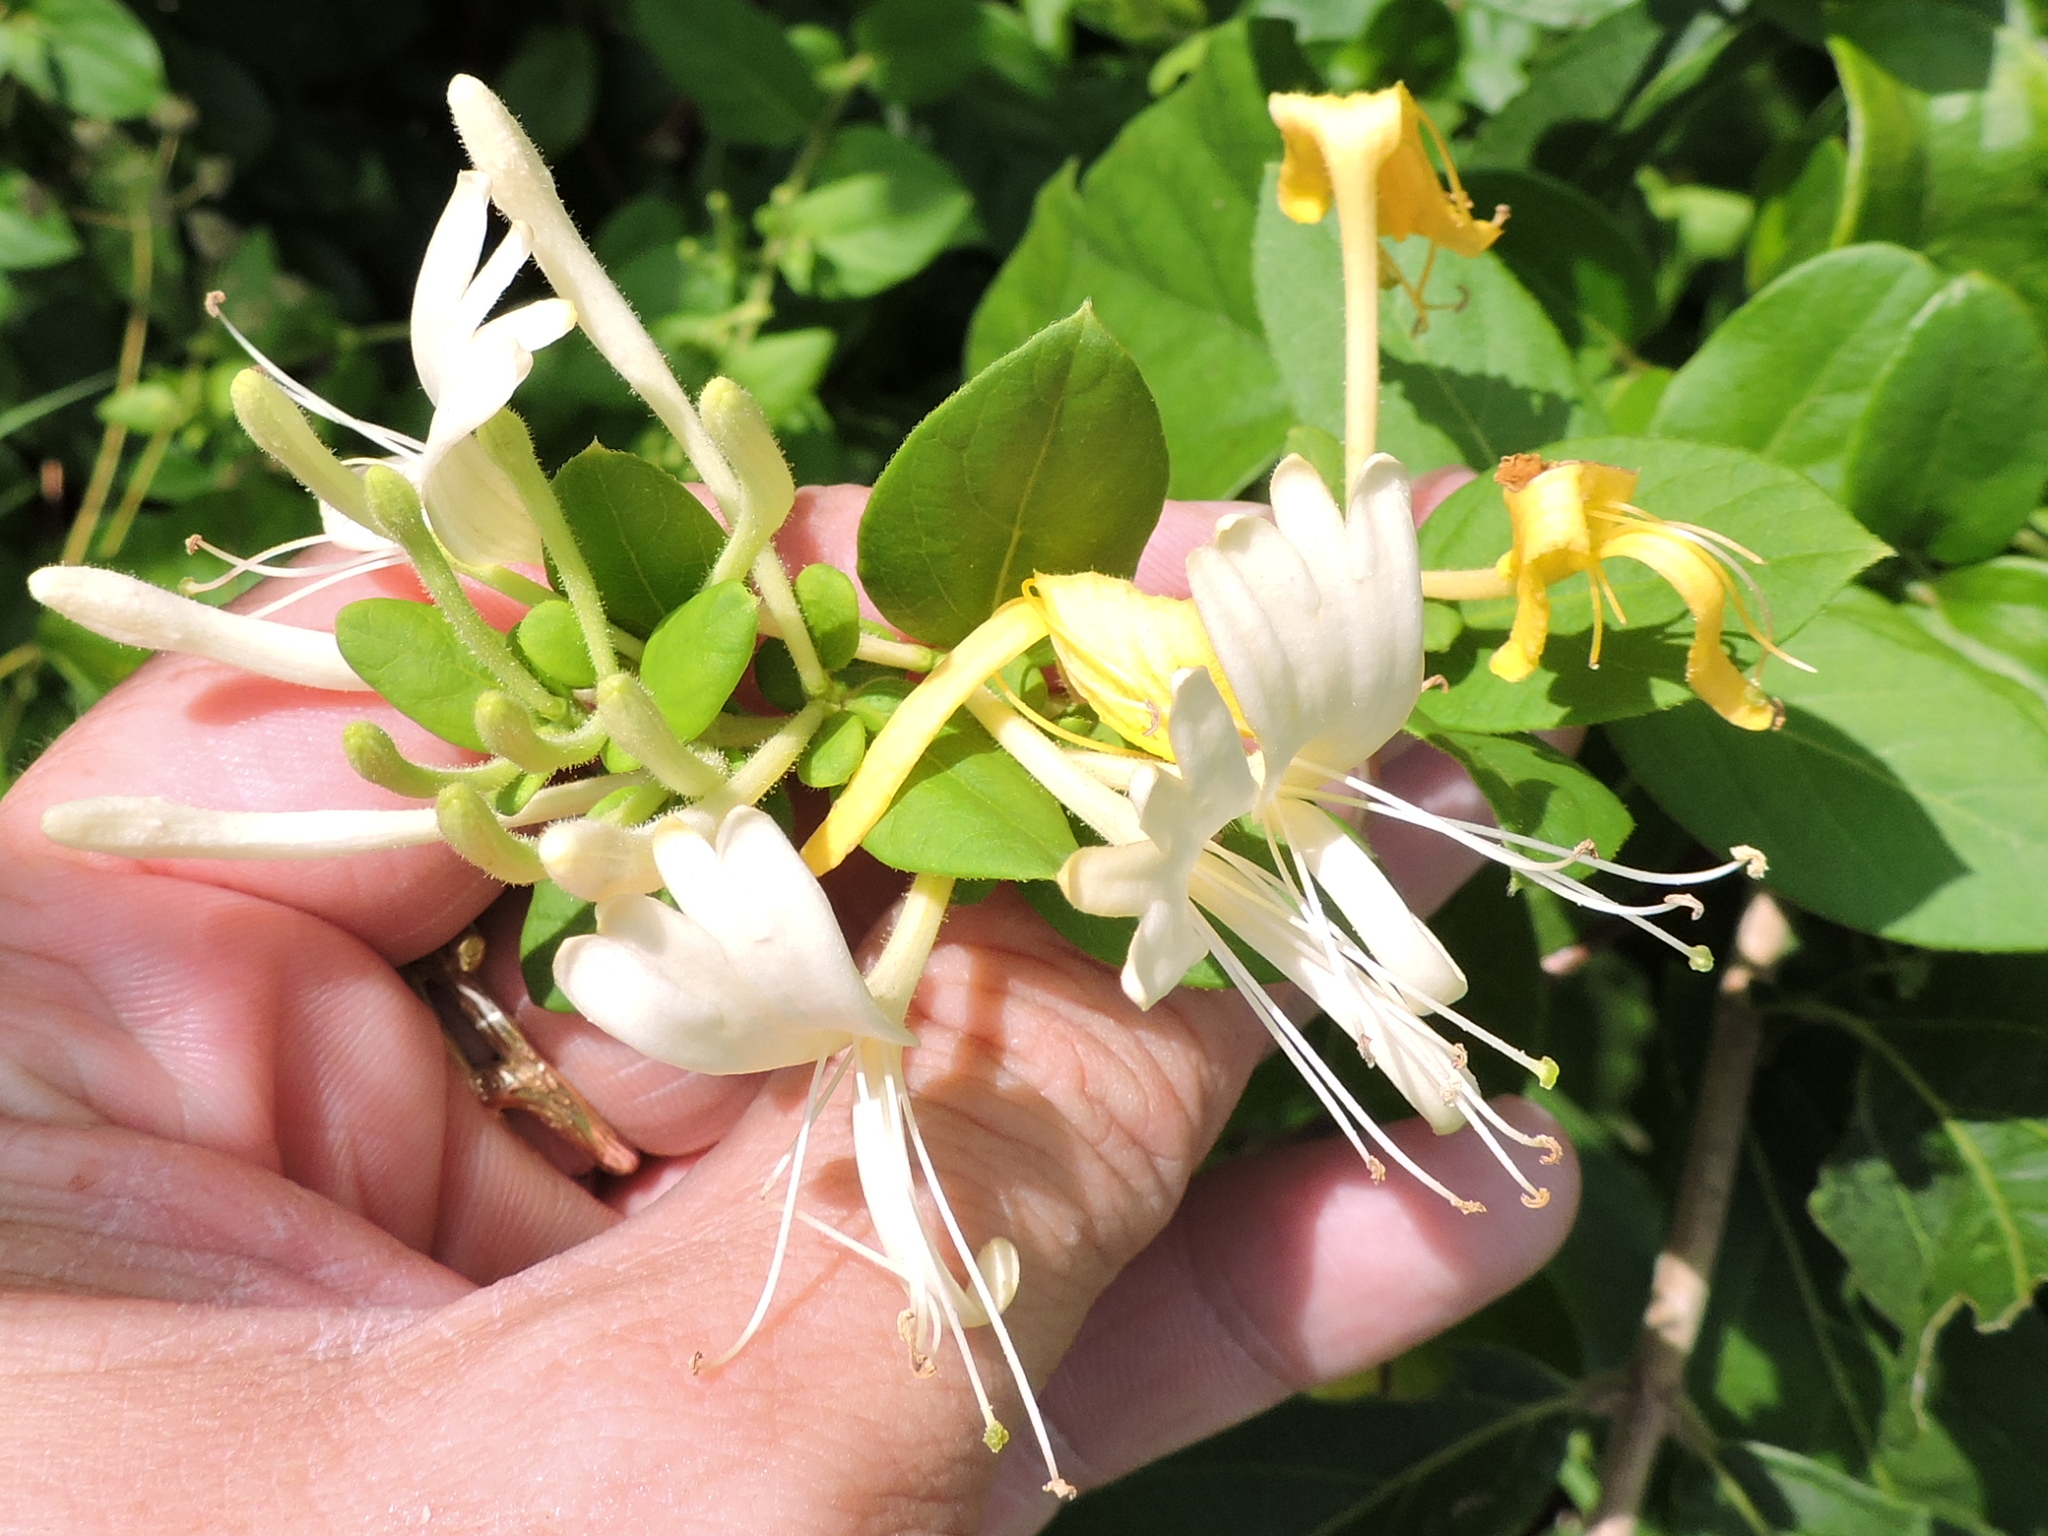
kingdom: Plantae
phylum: Tracheophyta
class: Magnoliopsida
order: Dipsacales
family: Caprifoliaceae
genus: Lonicera
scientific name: Lonicera japonica
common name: Japanese honeysuckle
